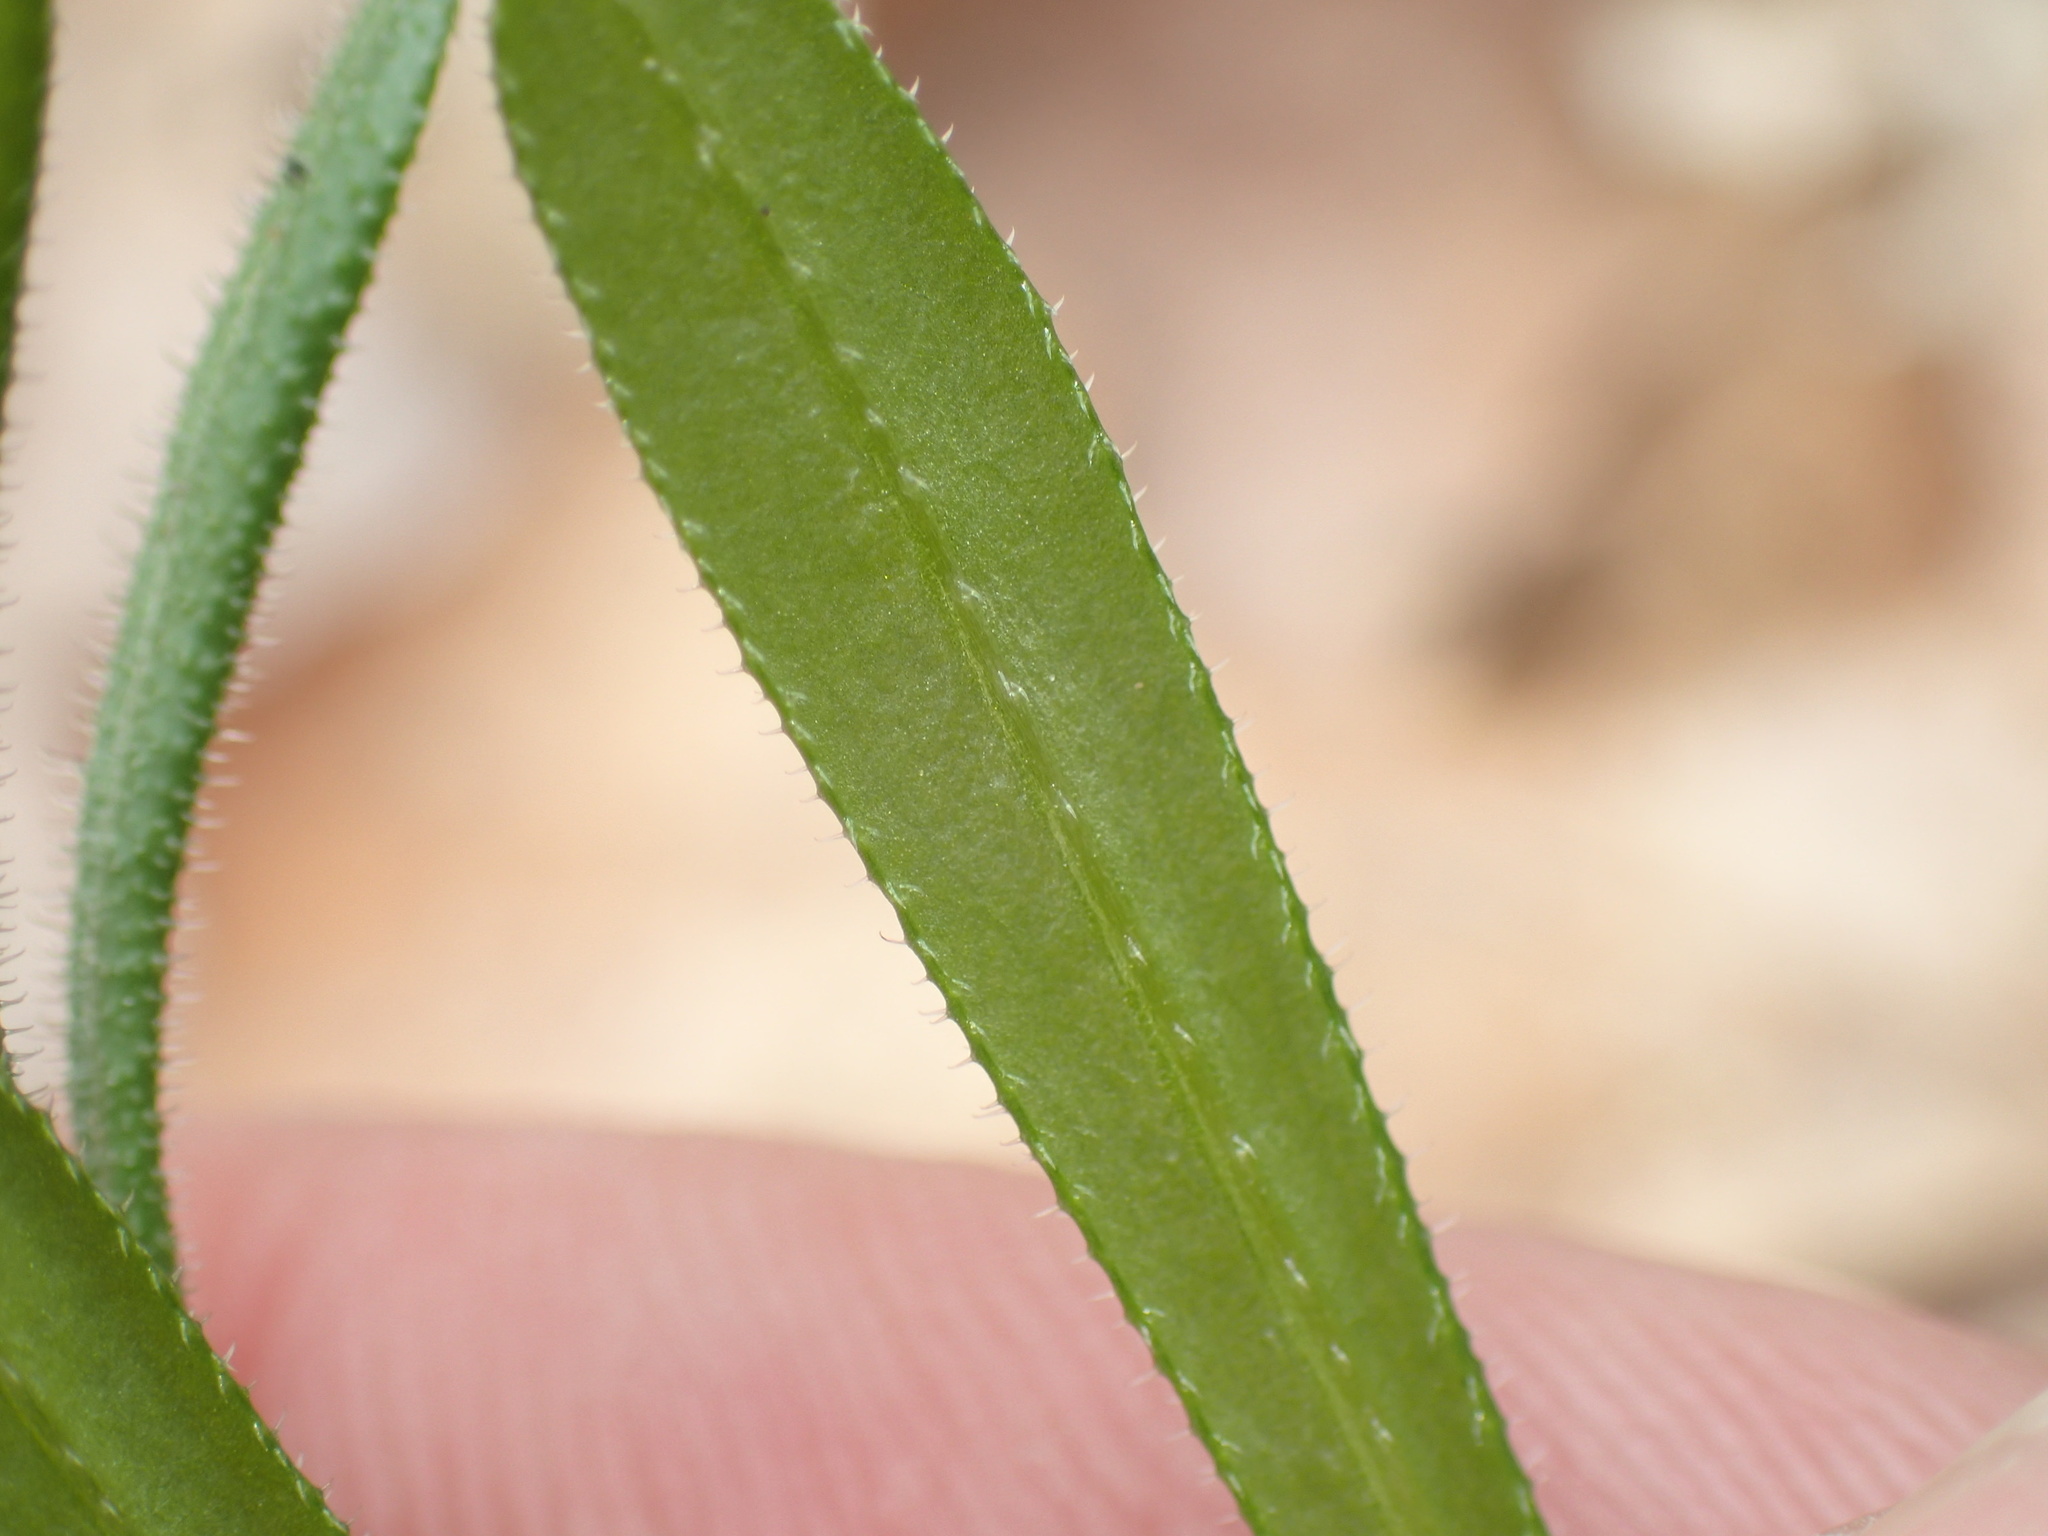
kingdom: Plantae
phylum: Tracheophyta
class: Magnoliopsida
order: Gentianales
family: Rubiaceae
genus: Galium
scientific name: Galium aparine
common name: Cleavers
